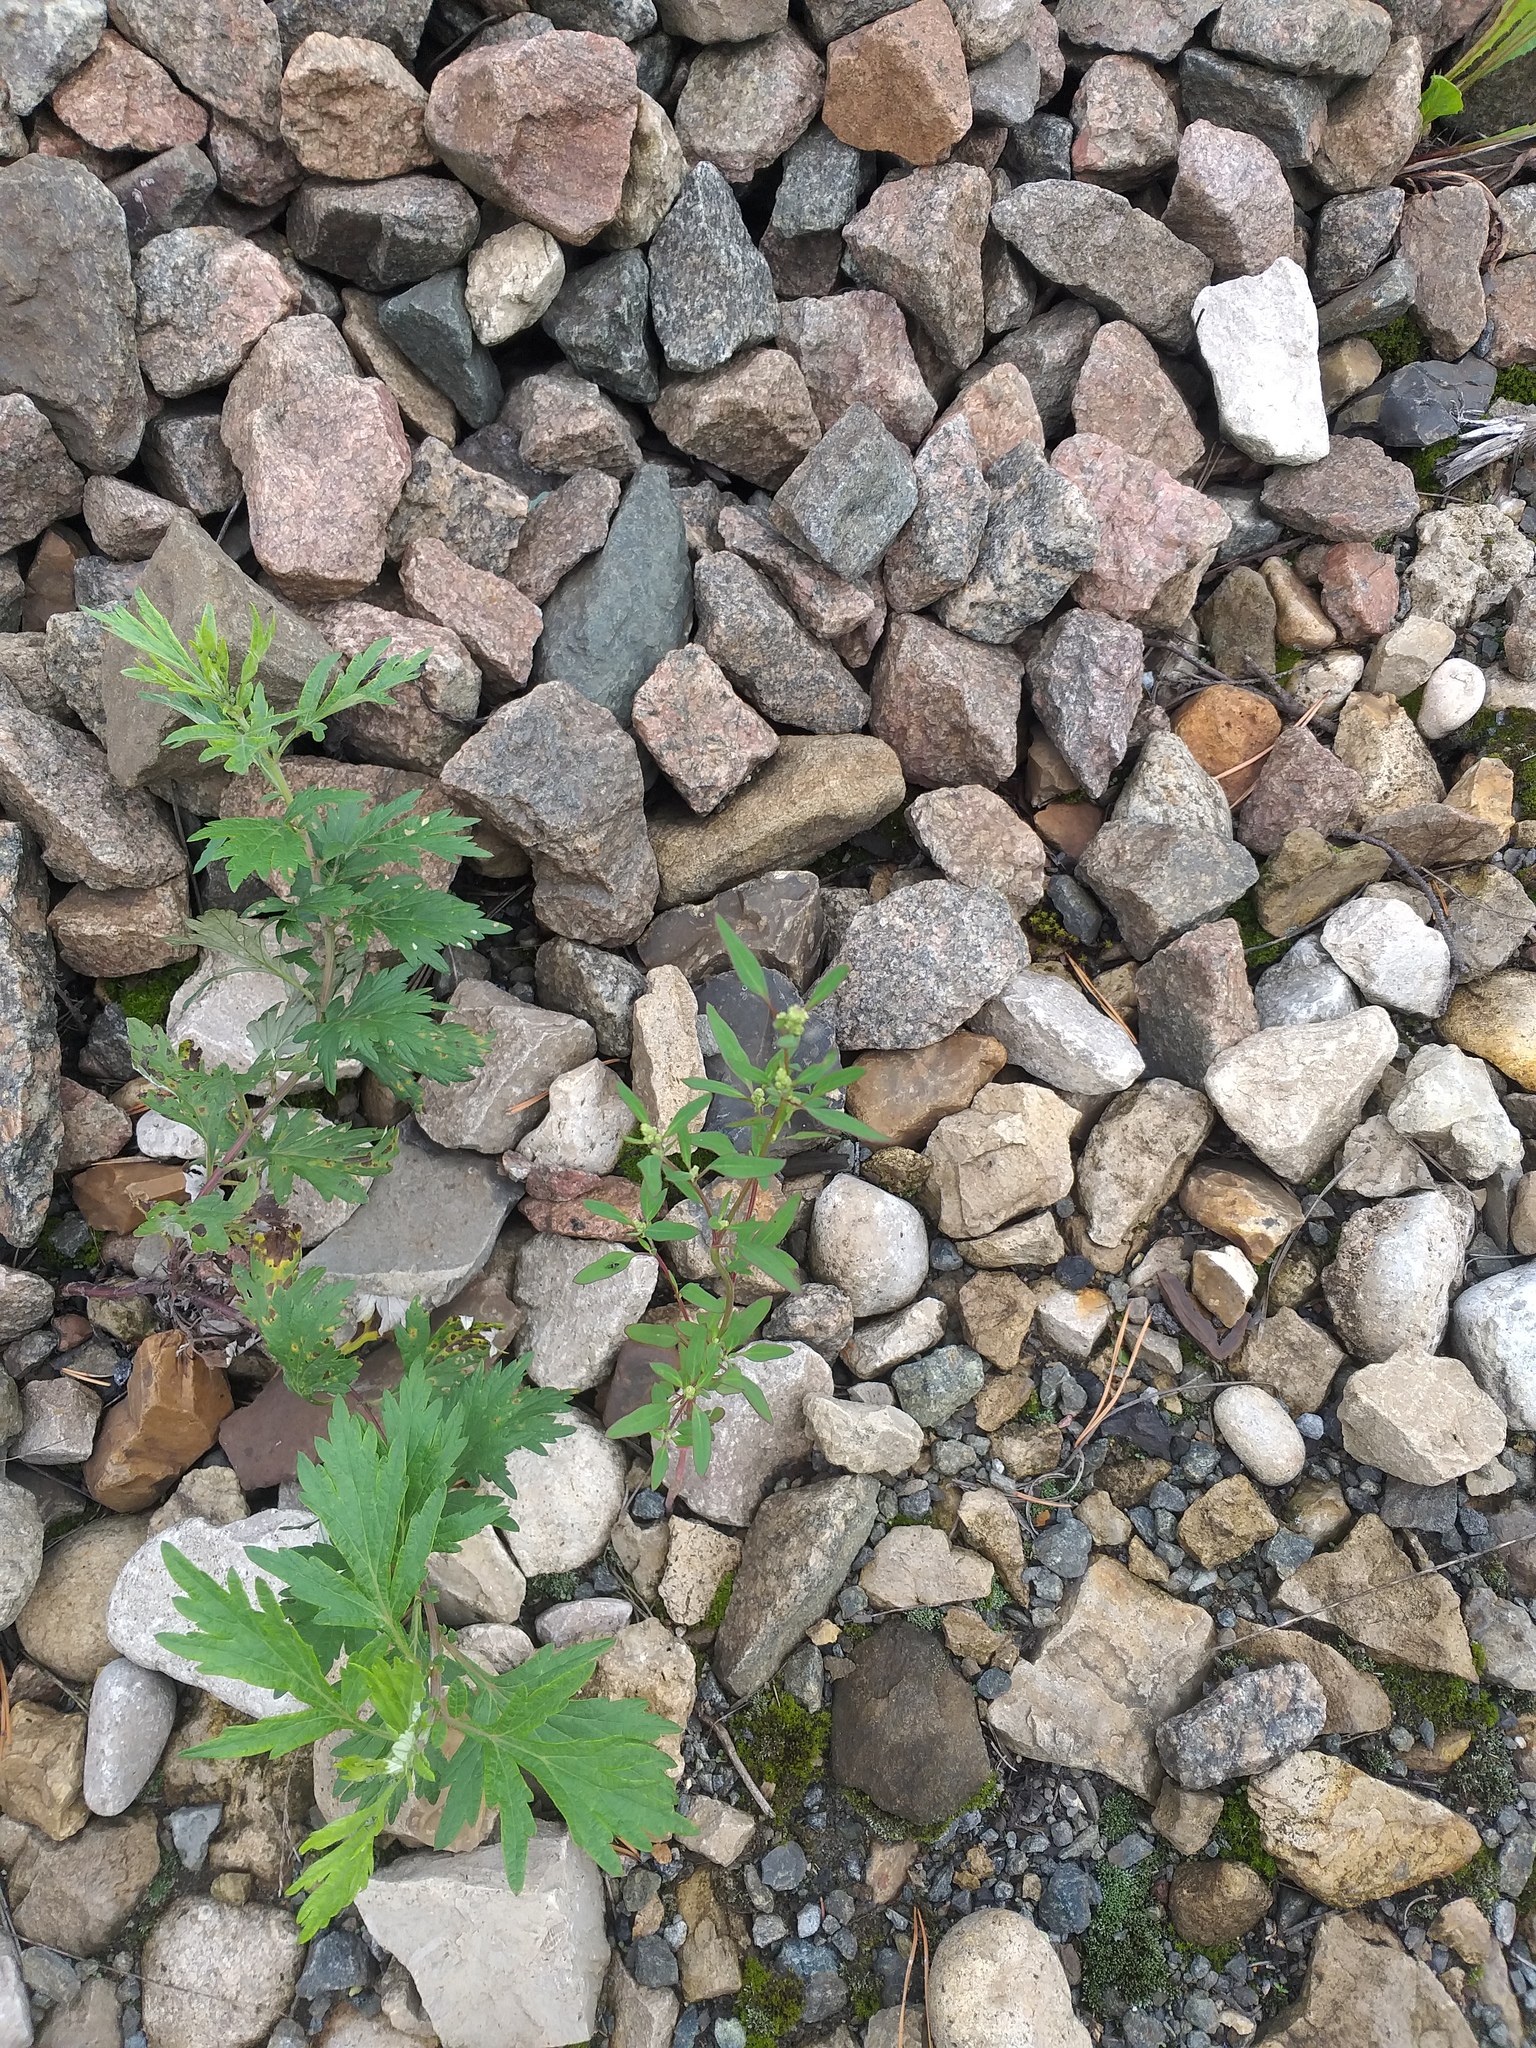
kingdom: Plantae
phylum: Tracheophyta
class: Magnoliopsida
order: Caryophyllales
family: Amaranthaceae
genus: Chenopodium
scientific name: Chenopodium betaceum
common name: Striped goosefoot
